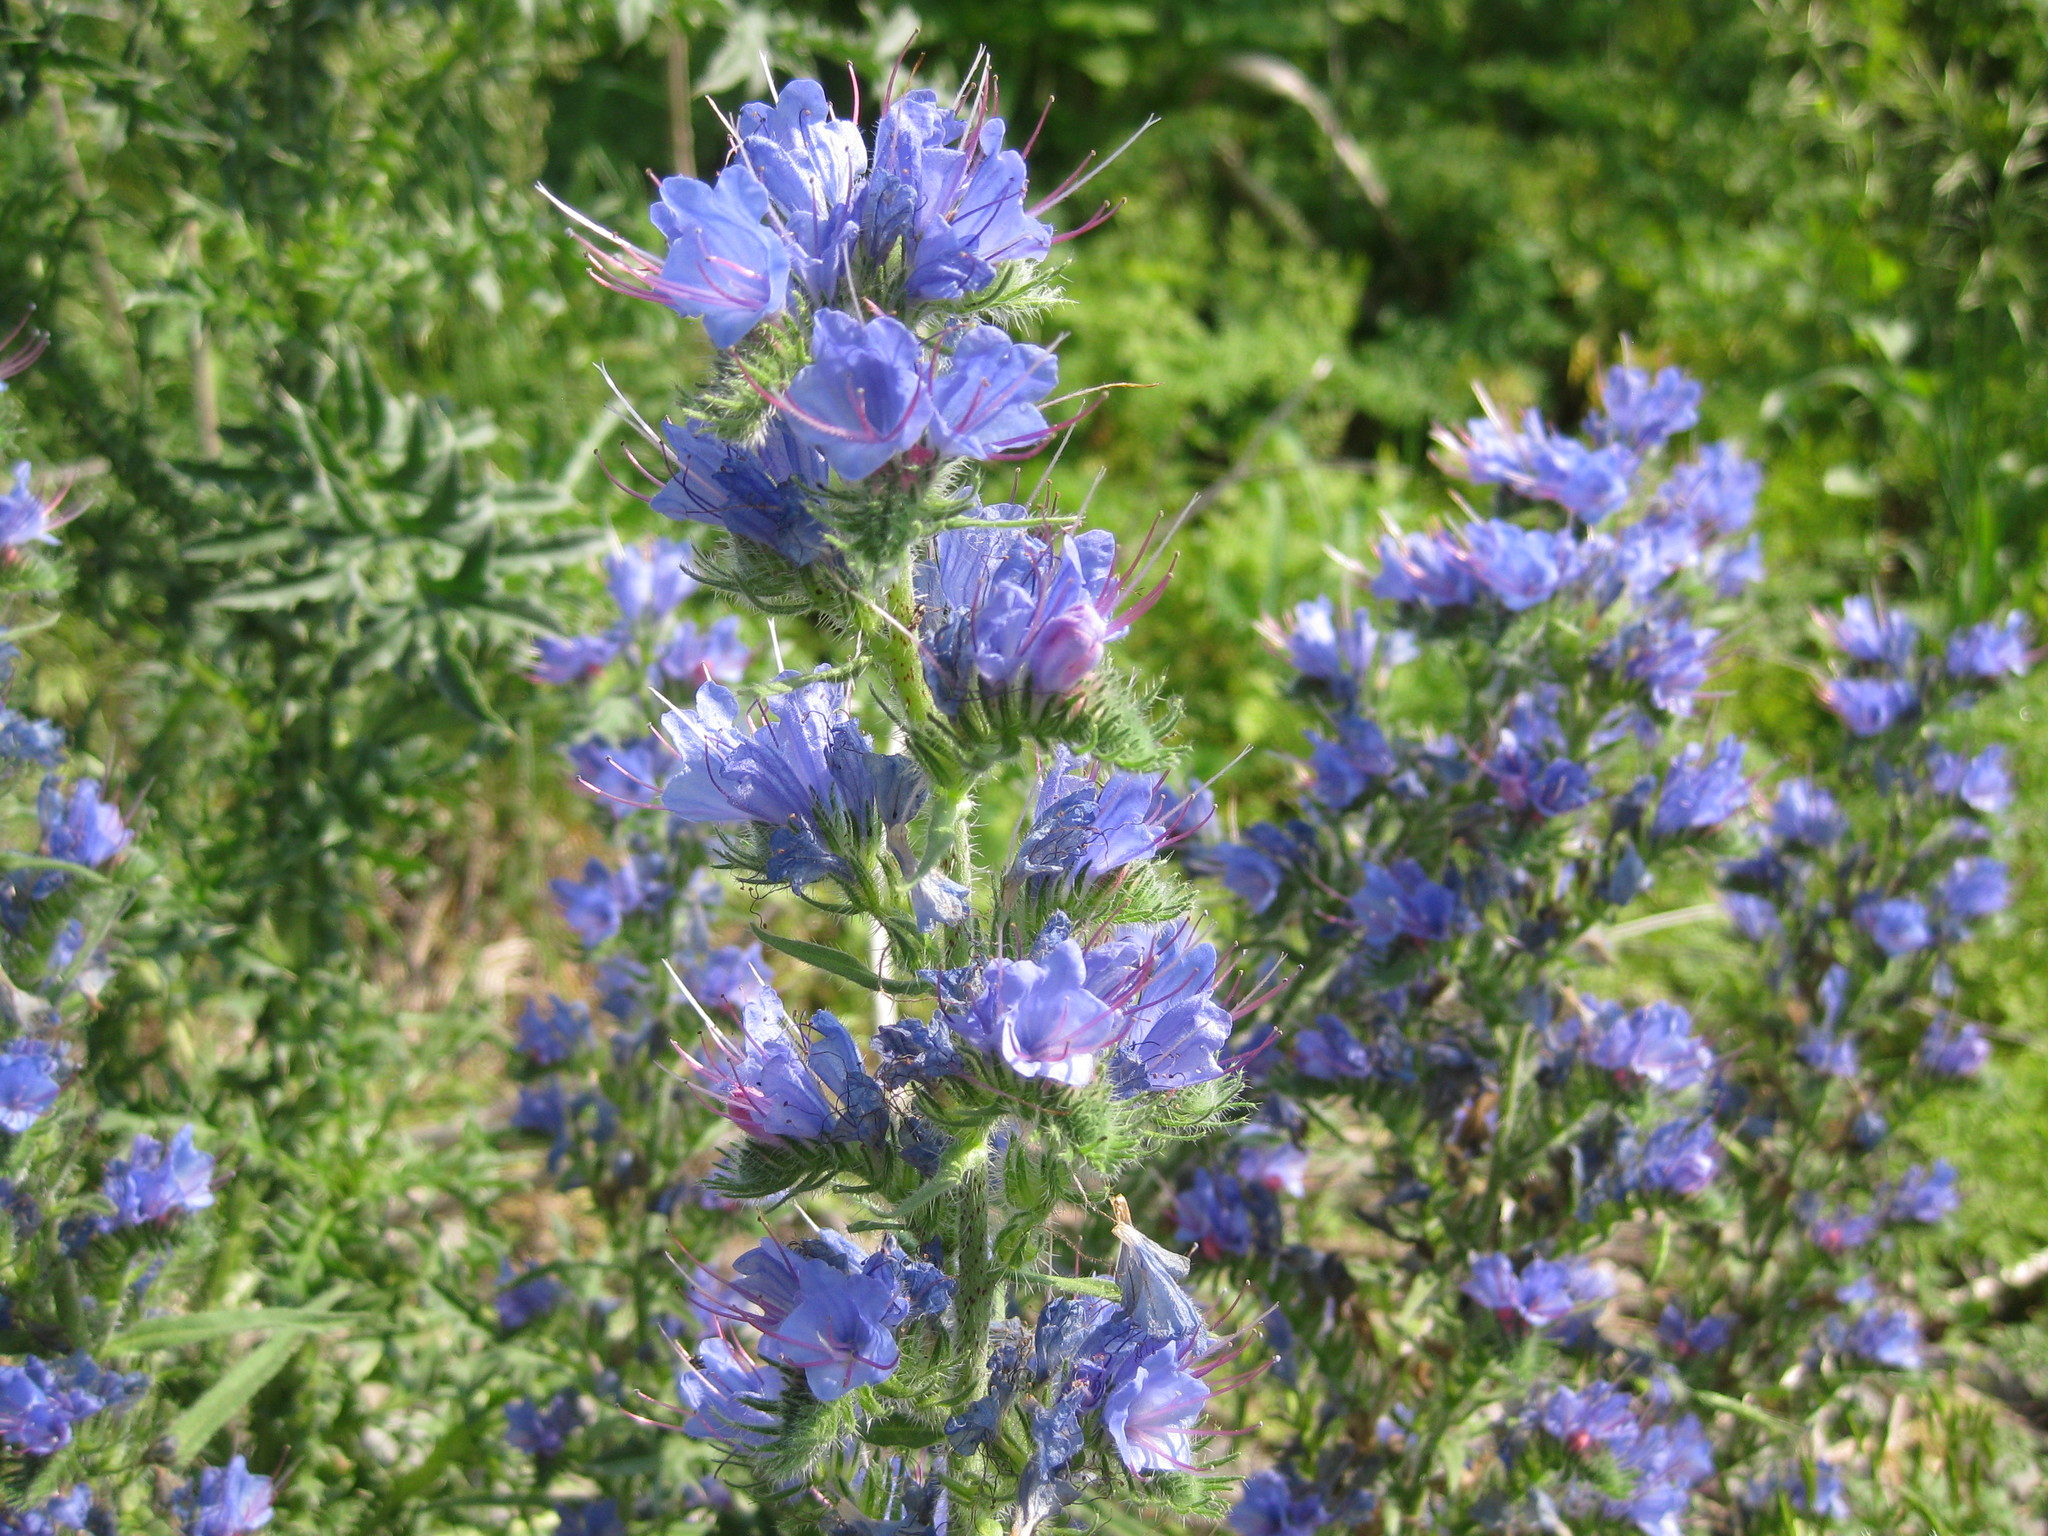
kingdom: Plantae
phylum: Tracheophyta
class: Magnoliopsida
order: Boraginales
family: Boraginaceae
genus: Echium
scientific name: Echium vulgare
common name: Common viper's bugloss
